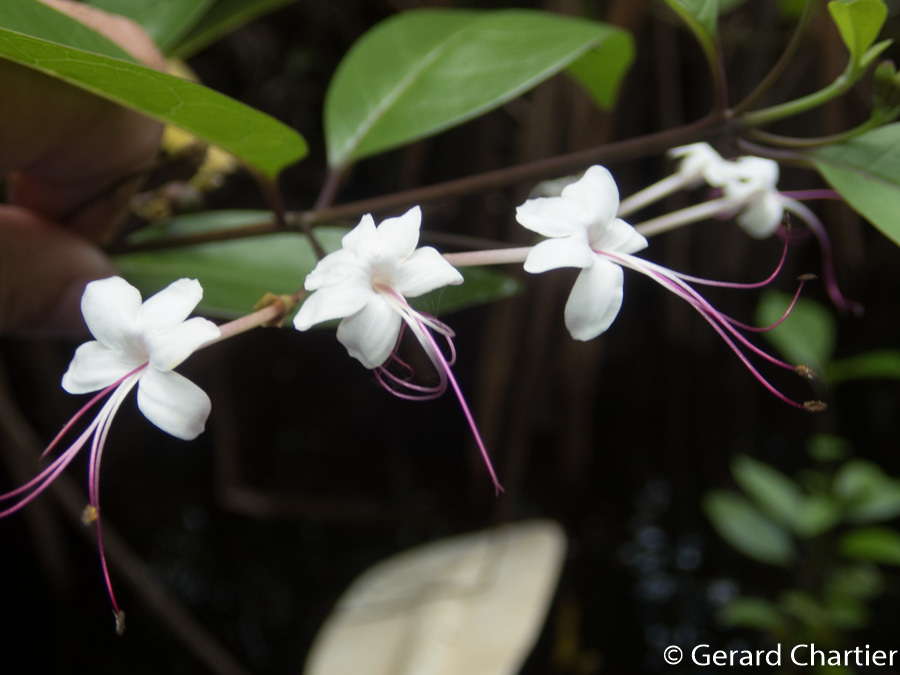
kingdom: Plantae
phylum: Tracheophyta
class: Magnoliopsida
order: Lamiales
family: Lamiaceae
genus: Volkameria
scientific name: Volkameria inermis
